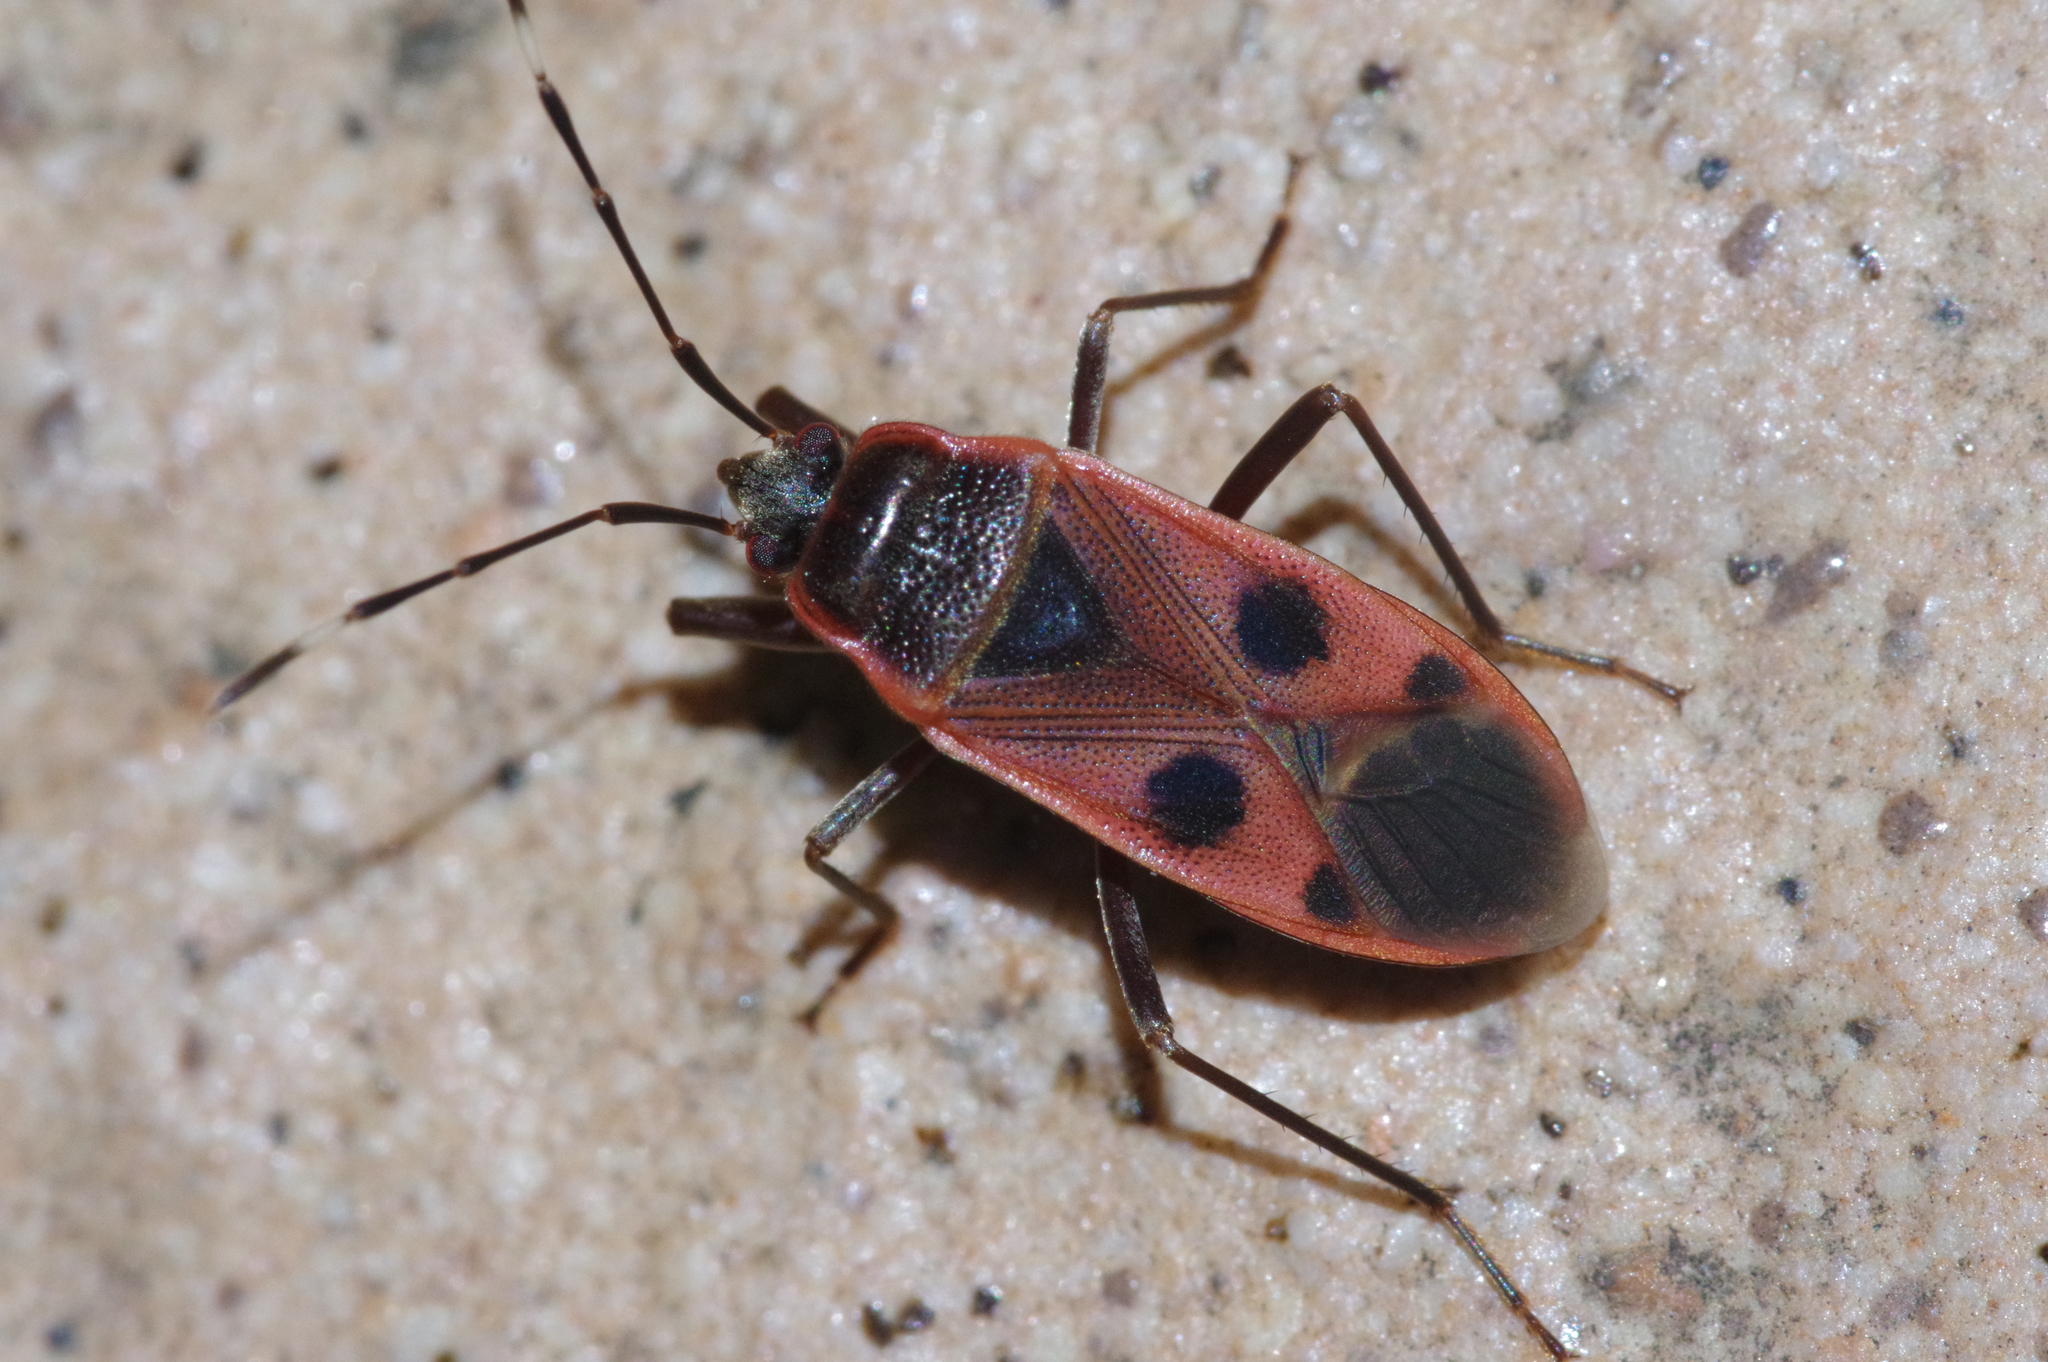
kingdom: Animalia
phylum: Arthropoda
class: Insecta
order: Hemiptera
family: Largidae
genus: Physopelta
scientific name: Physopelta parviceps
